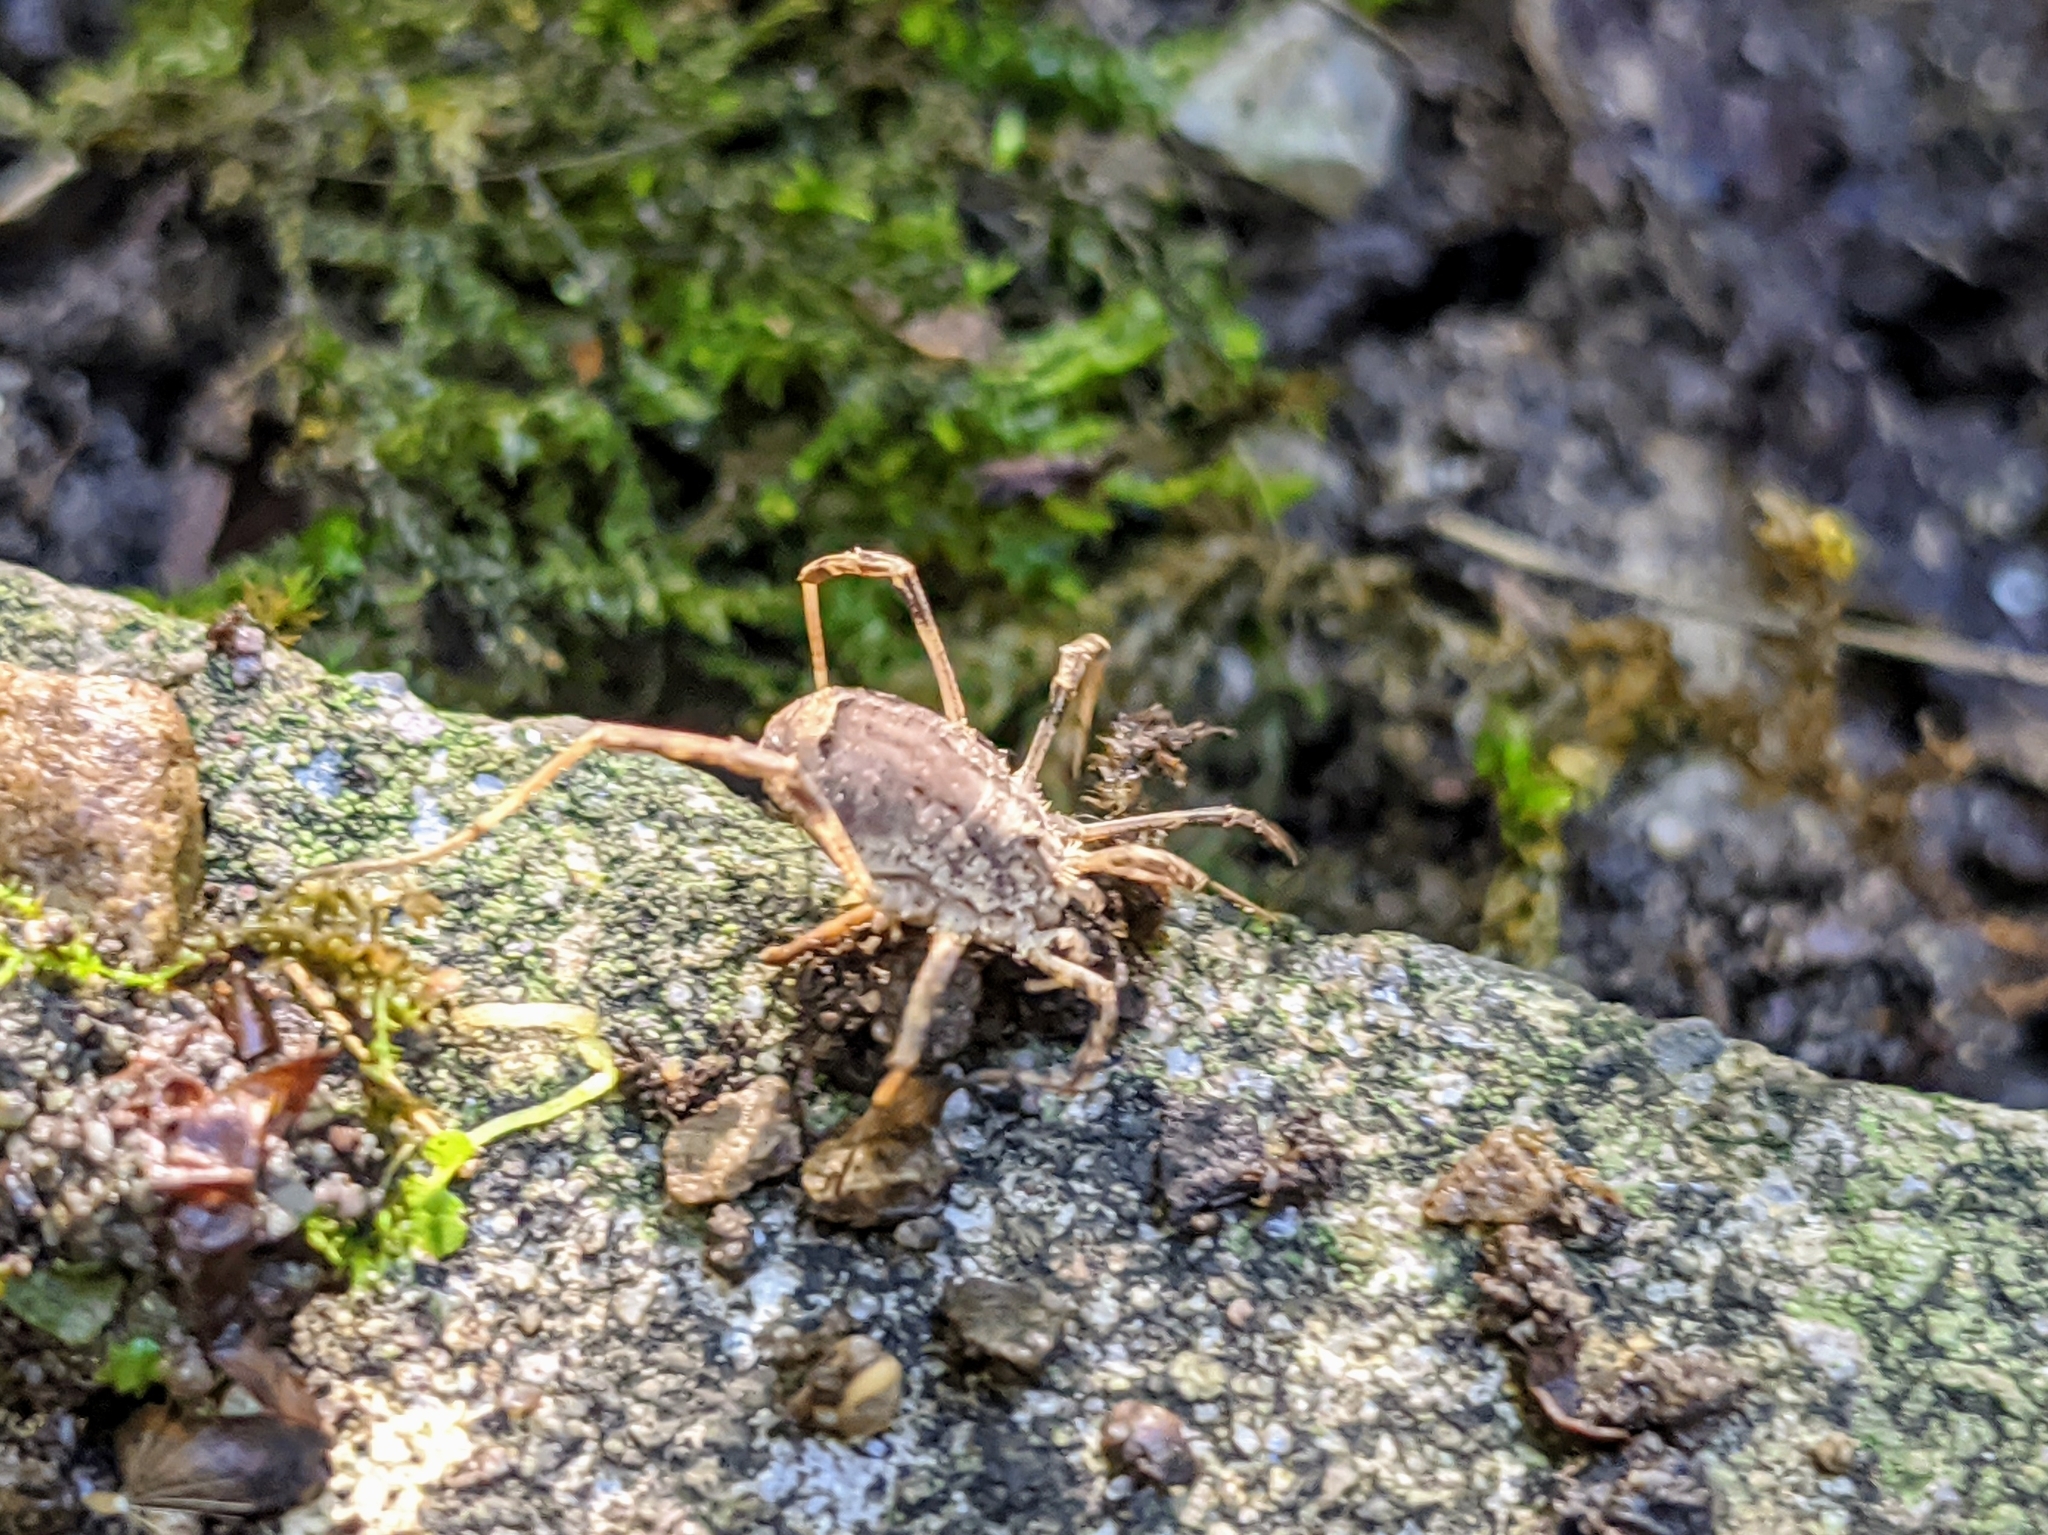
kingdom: Animalia
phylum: Arthropoda
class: Arachnida
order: Opiliones
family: Phalangiidae
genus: Odiellus
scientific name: Odiellus spinosus
